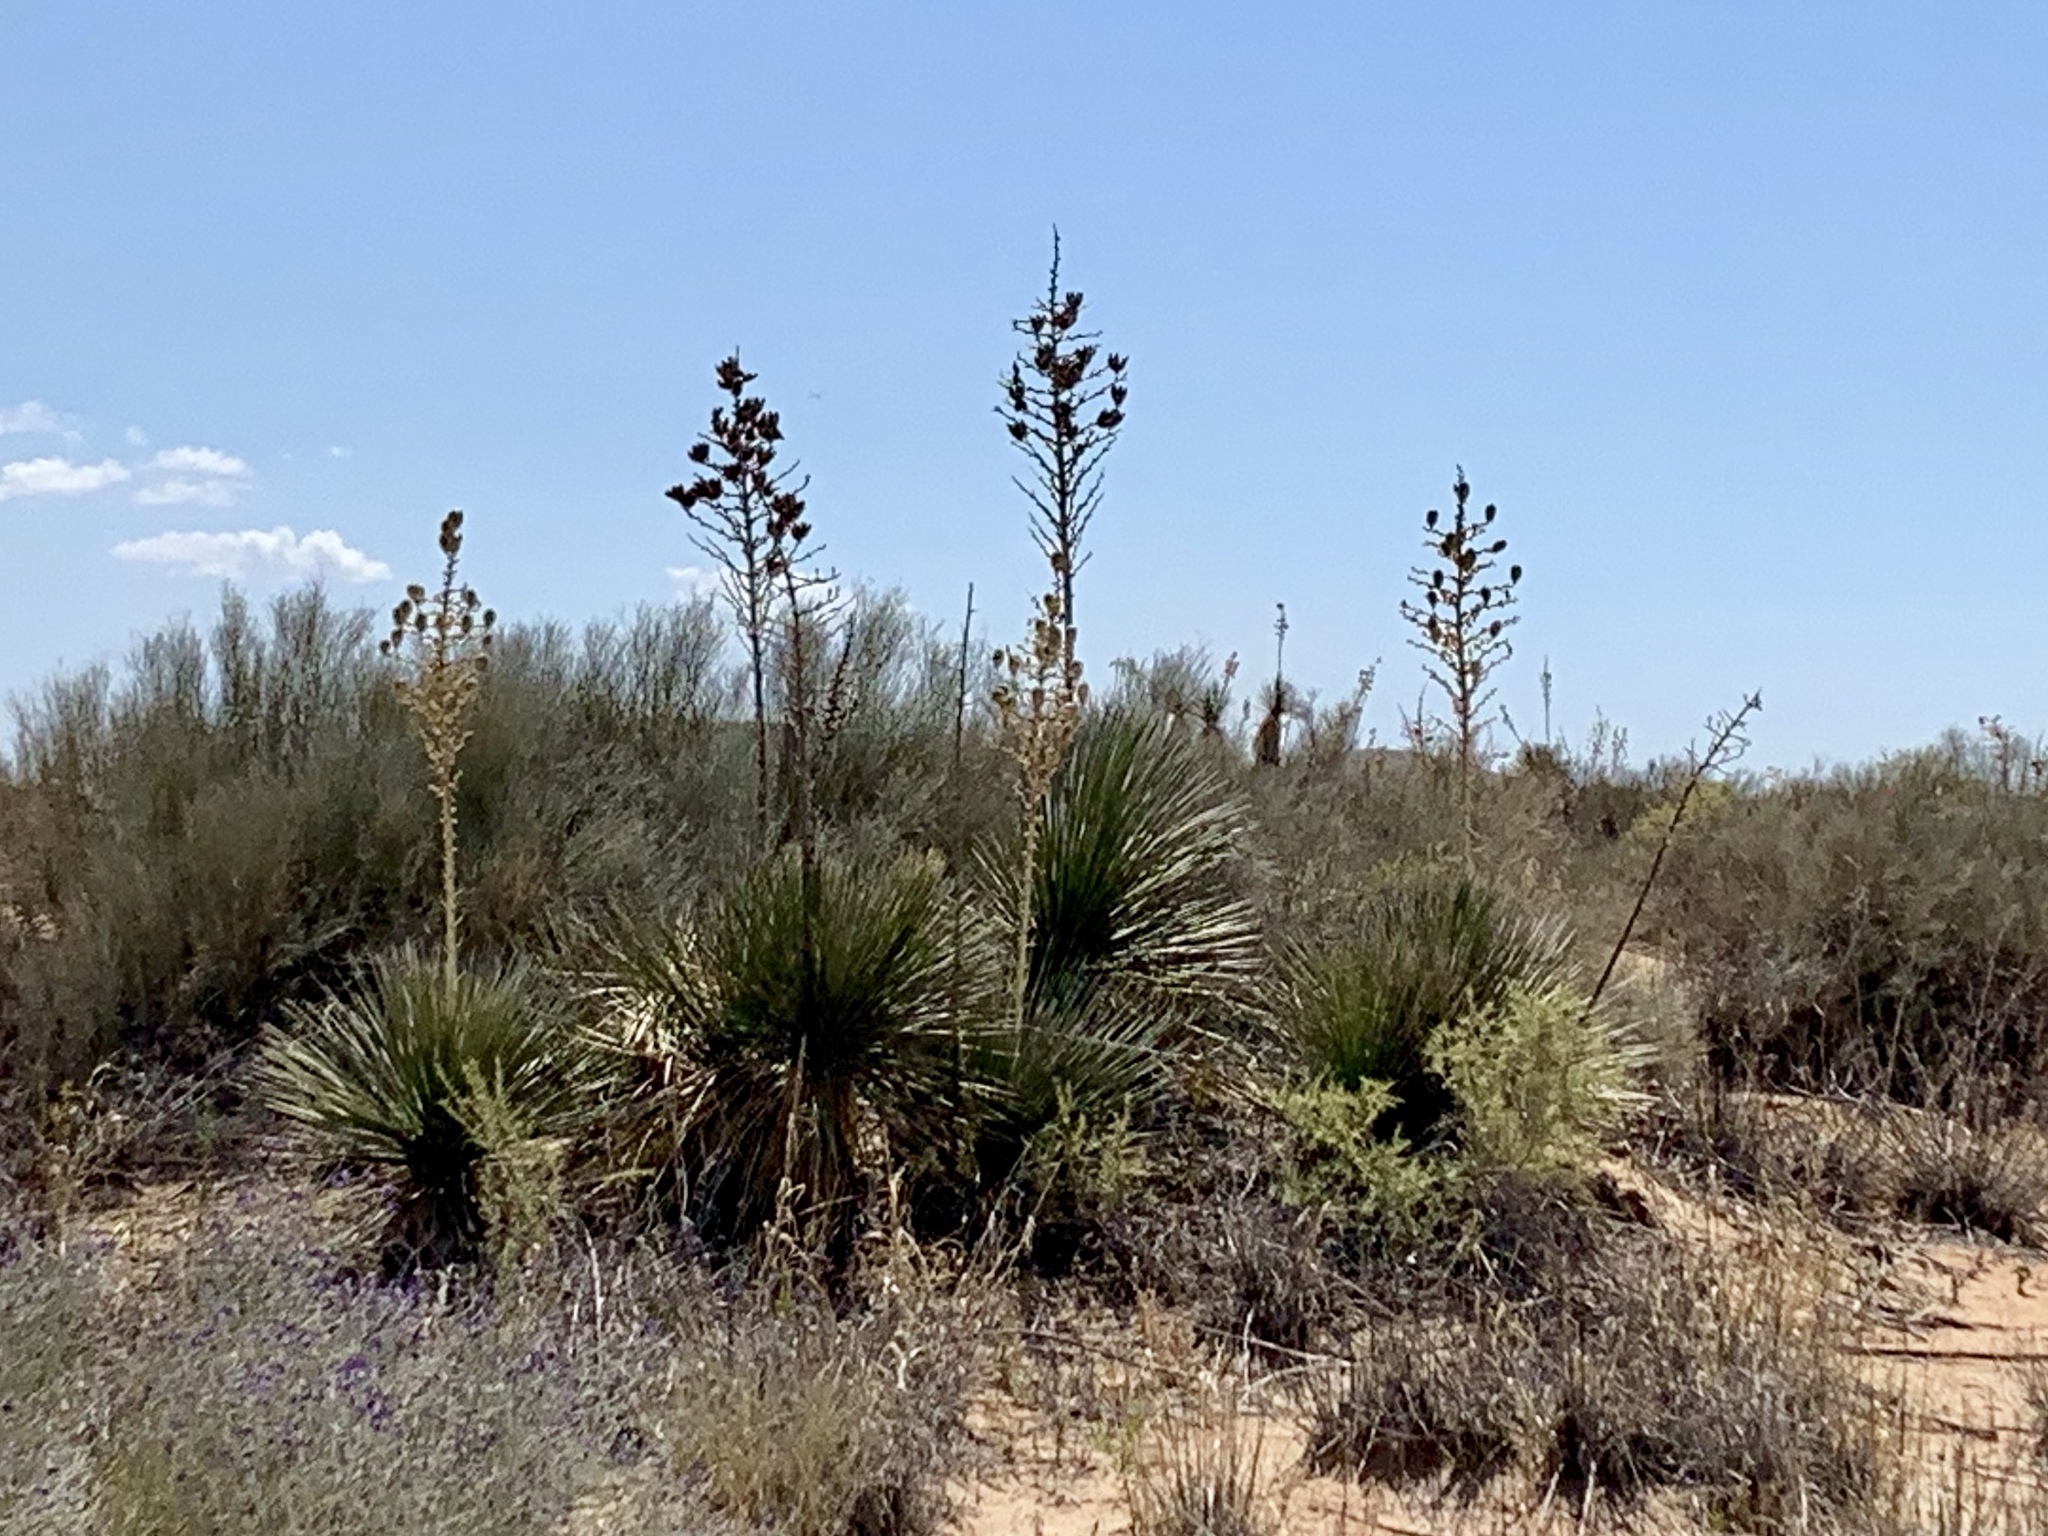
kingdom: Plantae
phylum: Tracheophyta
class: Liliopsida
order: Asparagales
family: Asparagaceae
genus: Yucca
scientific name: Yucca elata
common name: Palmella
